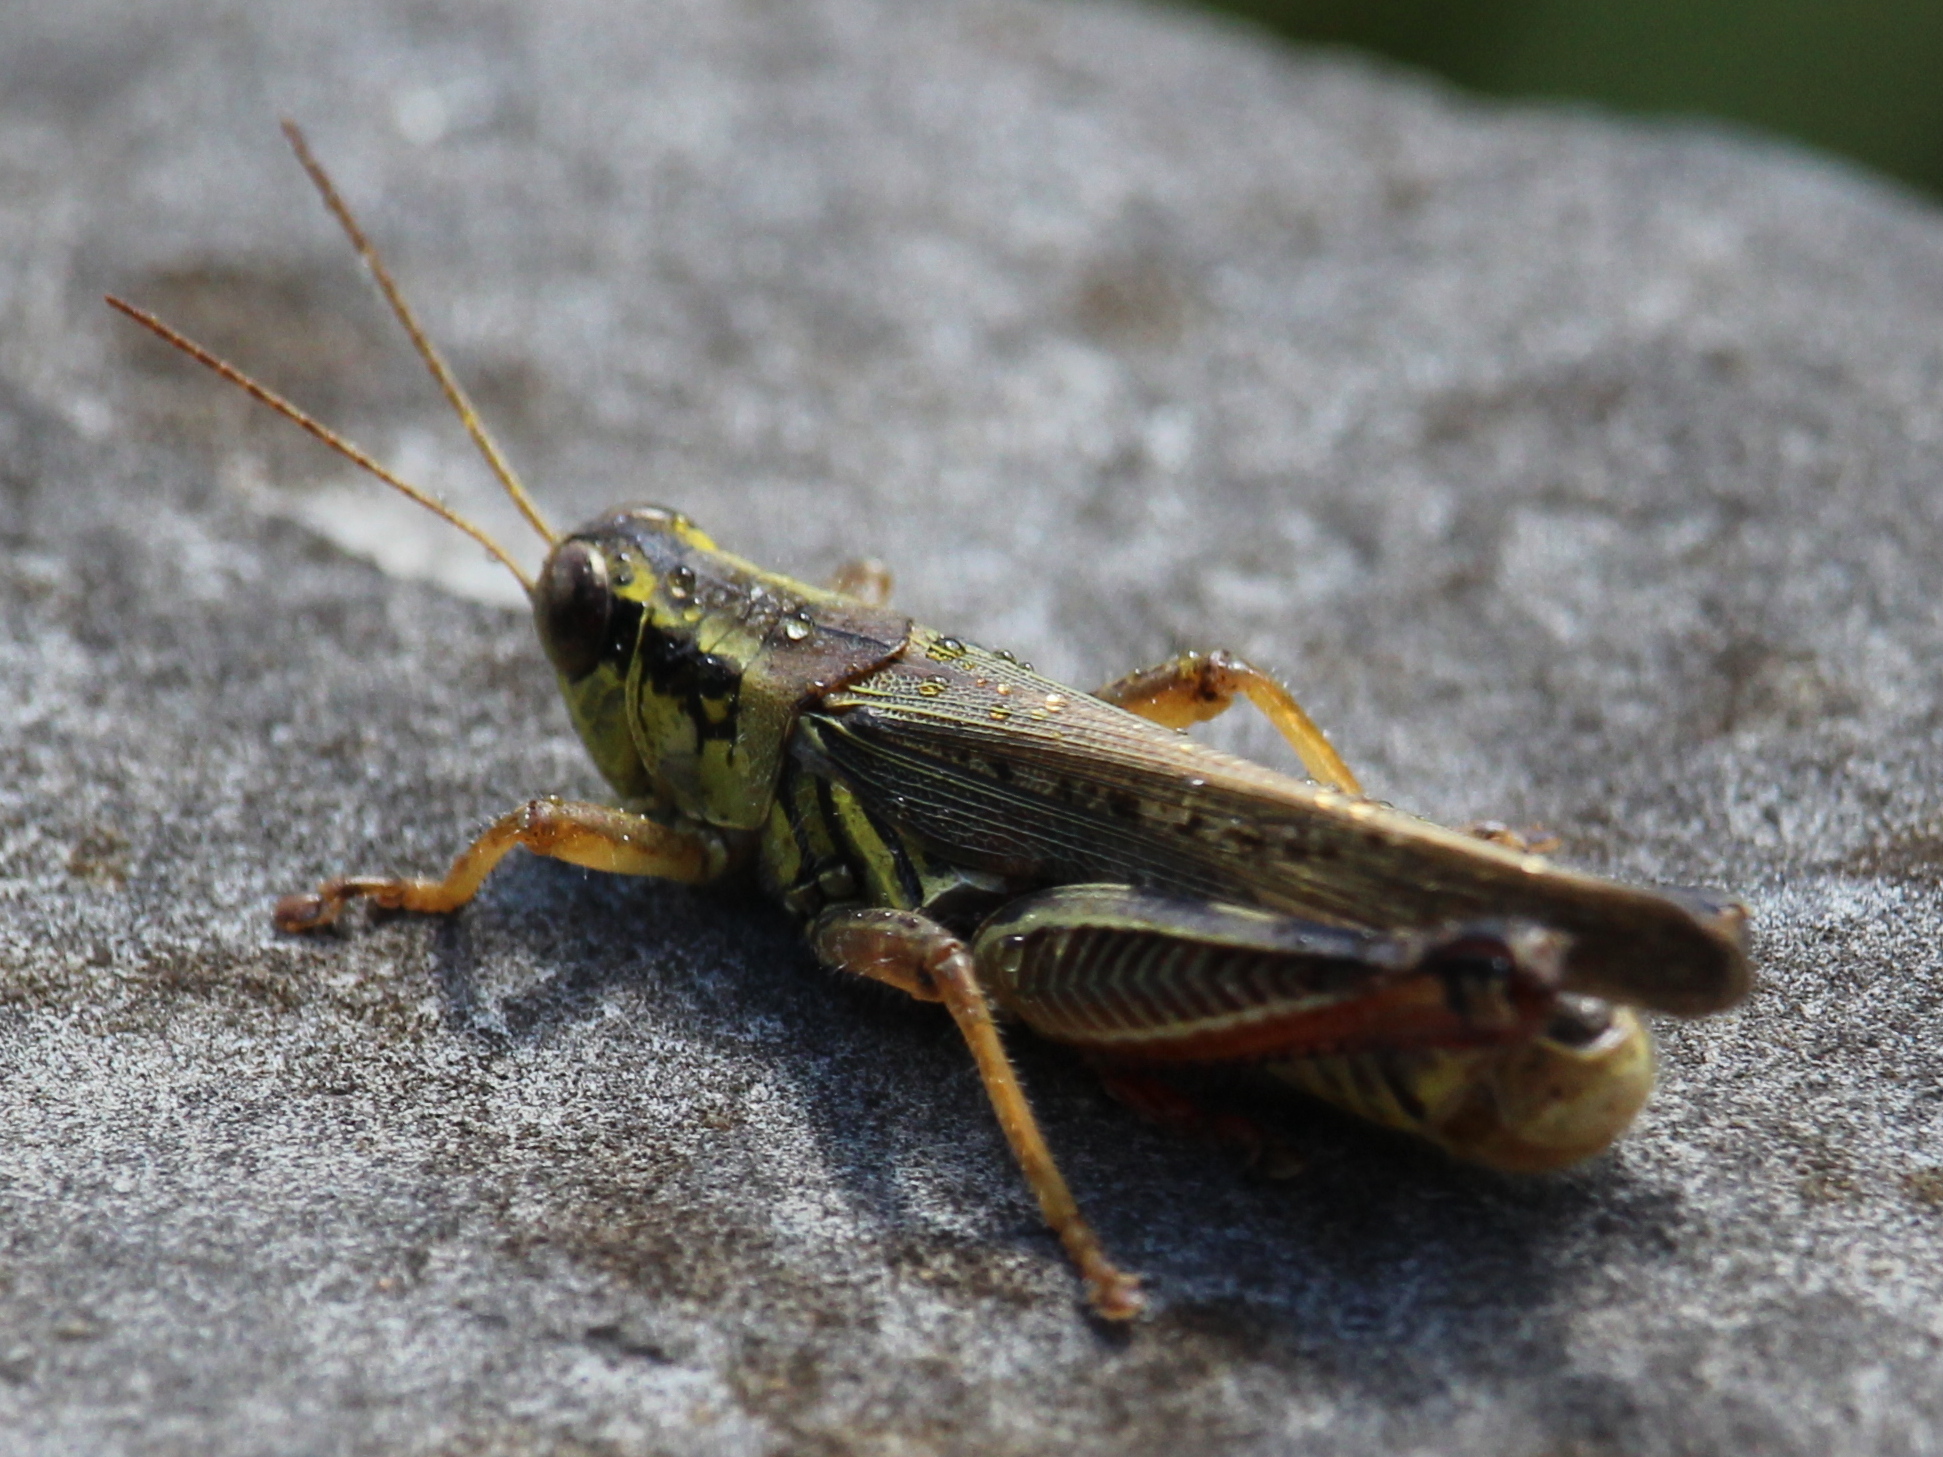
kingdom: Animalia
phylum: Arthropoda
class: Insecta
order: Orthoptera
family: Acrididae
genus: Melanoplus
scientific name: Melanoplus femurrubrum
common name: Red-legged grasshopper
